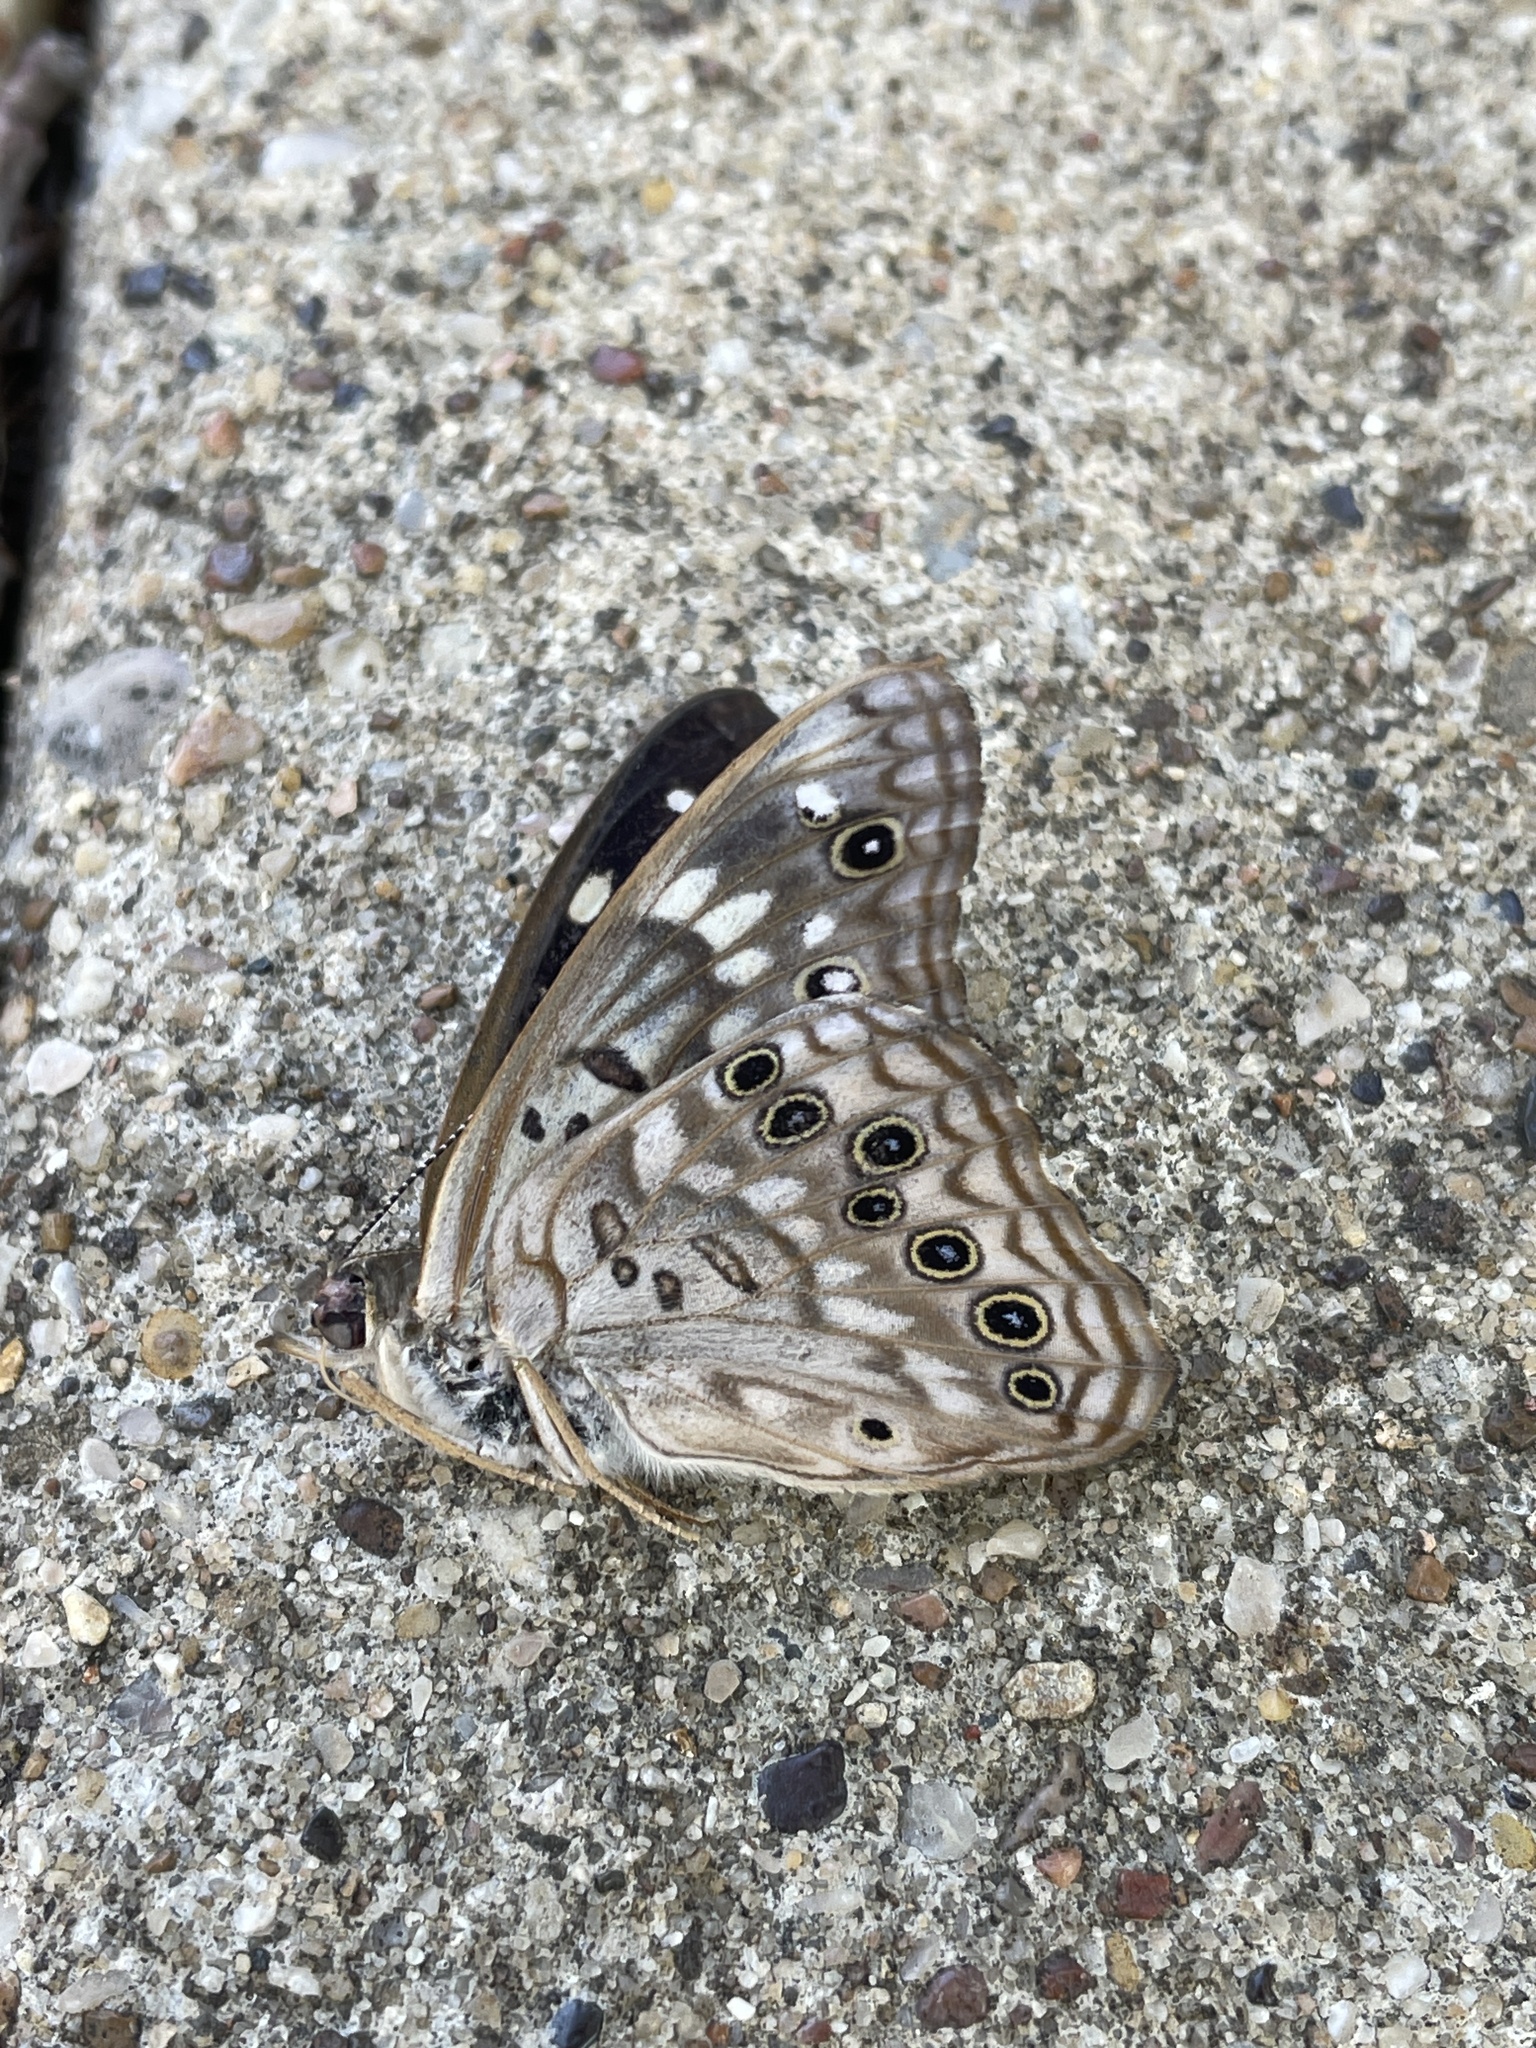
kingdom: Animalia
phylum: Arthropoda
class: Insecta
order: Lepidoptera
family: Nymphalidae
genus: Asterocampa
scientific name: Asterocampa celtis
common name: Hackberry emperor
